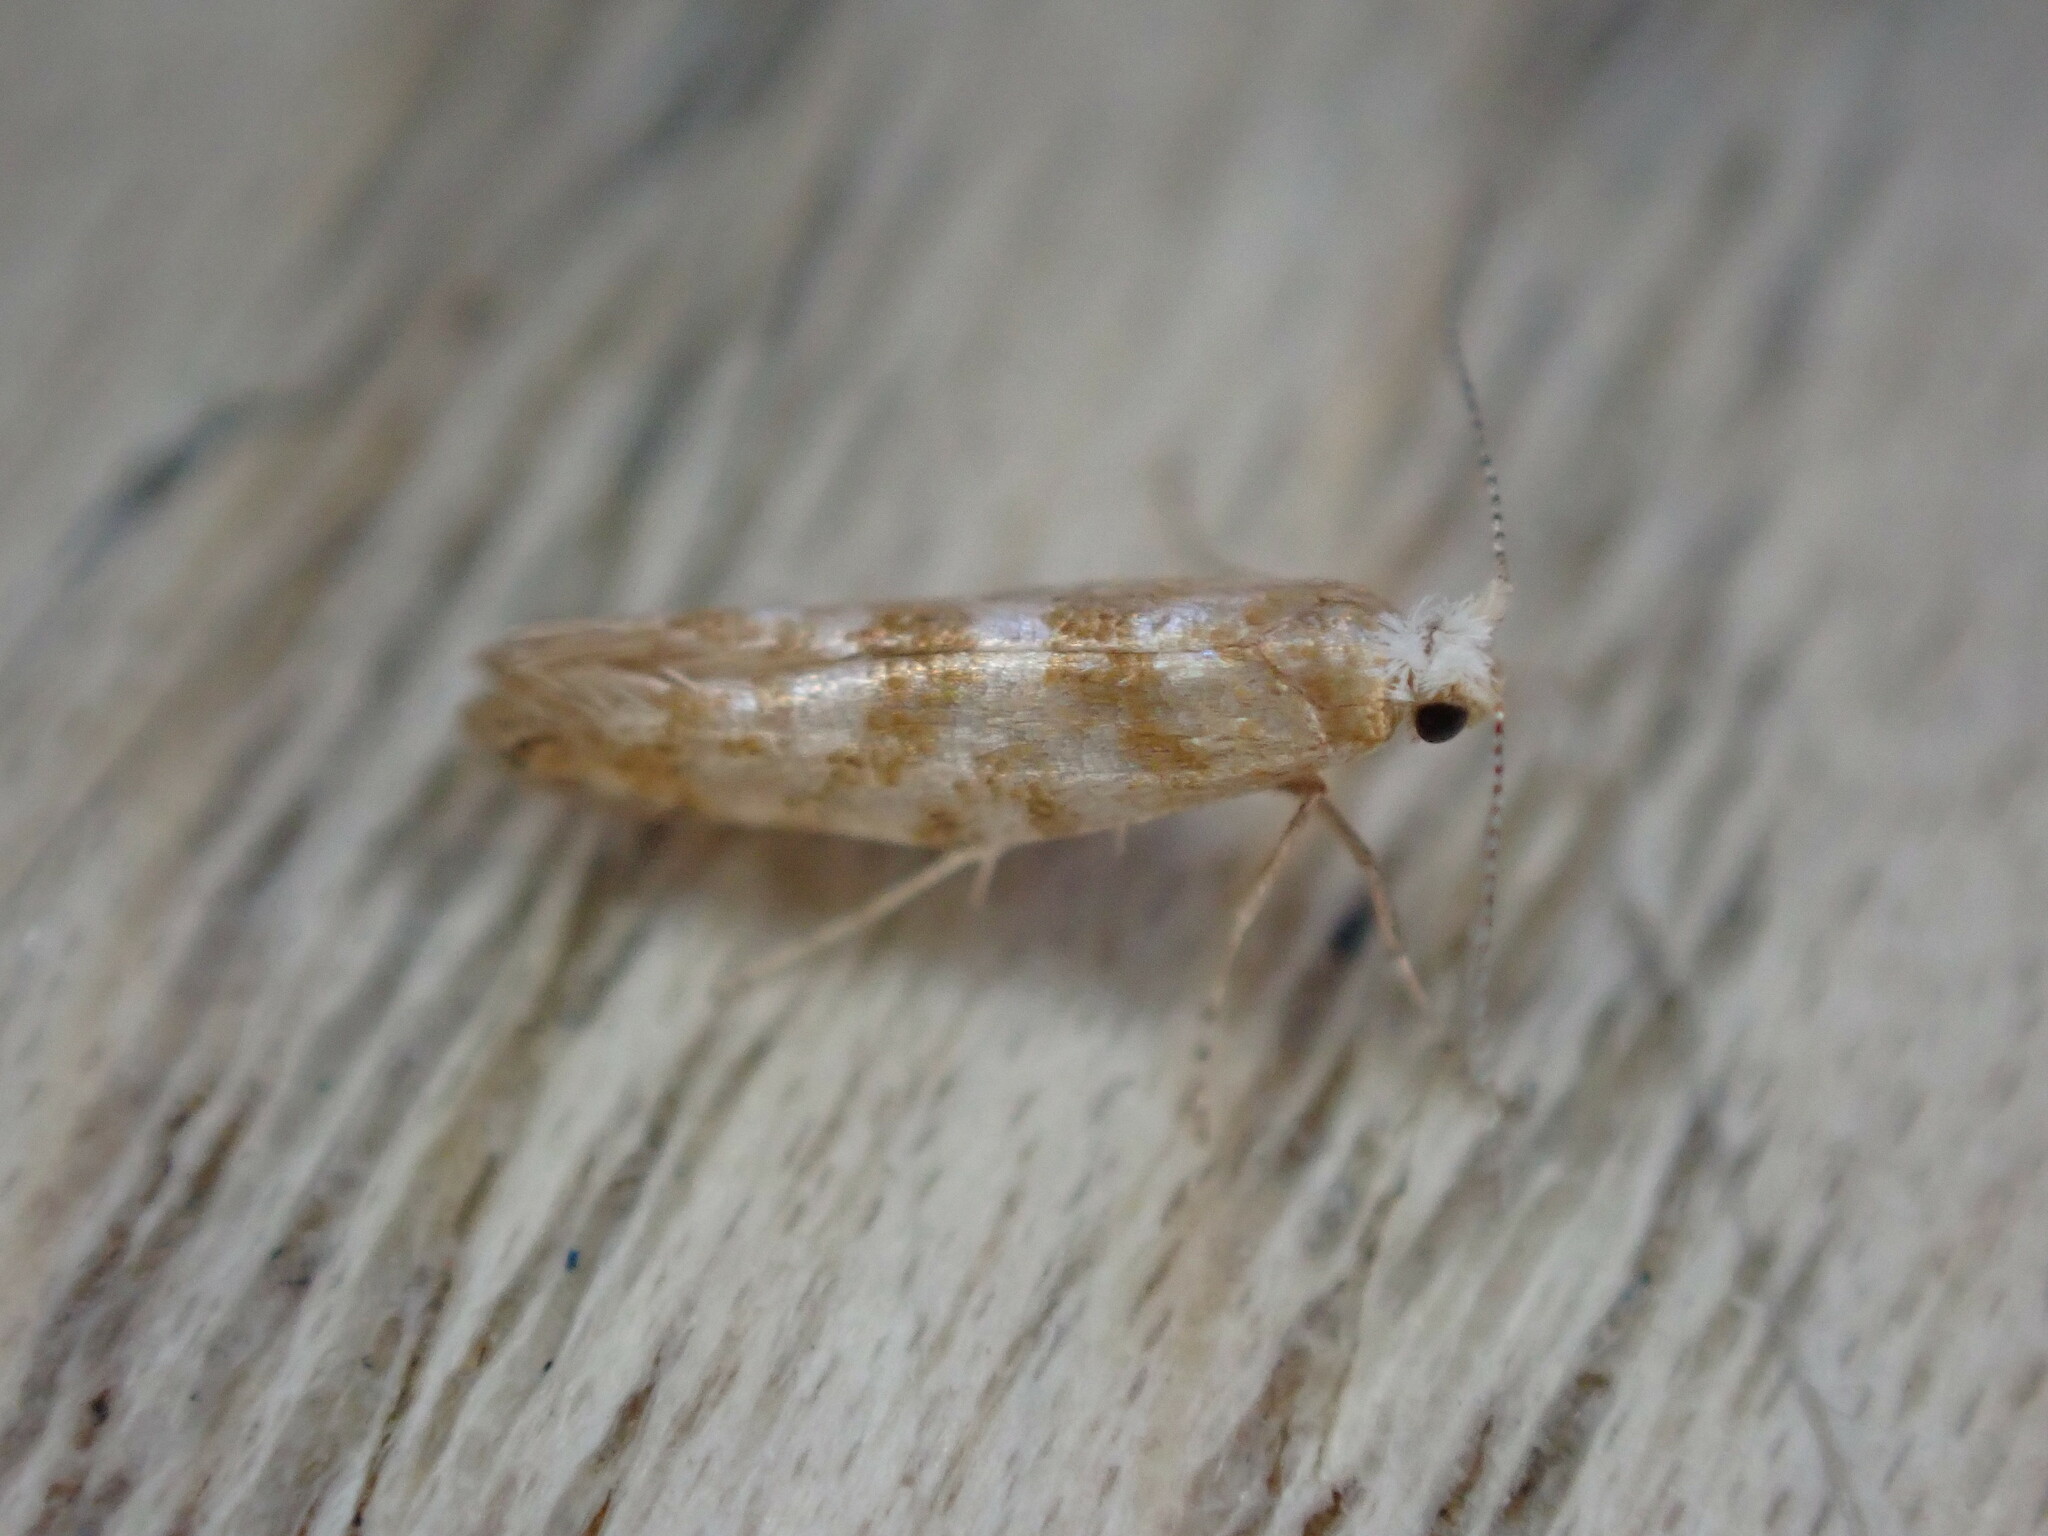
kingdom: Animalia
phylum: Arthropoda
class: Insecta
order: Lepidoptera
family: Argyresthiidae
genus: Argyresthia
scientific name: Argyresthia cupressella
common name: Cypress tip moth
